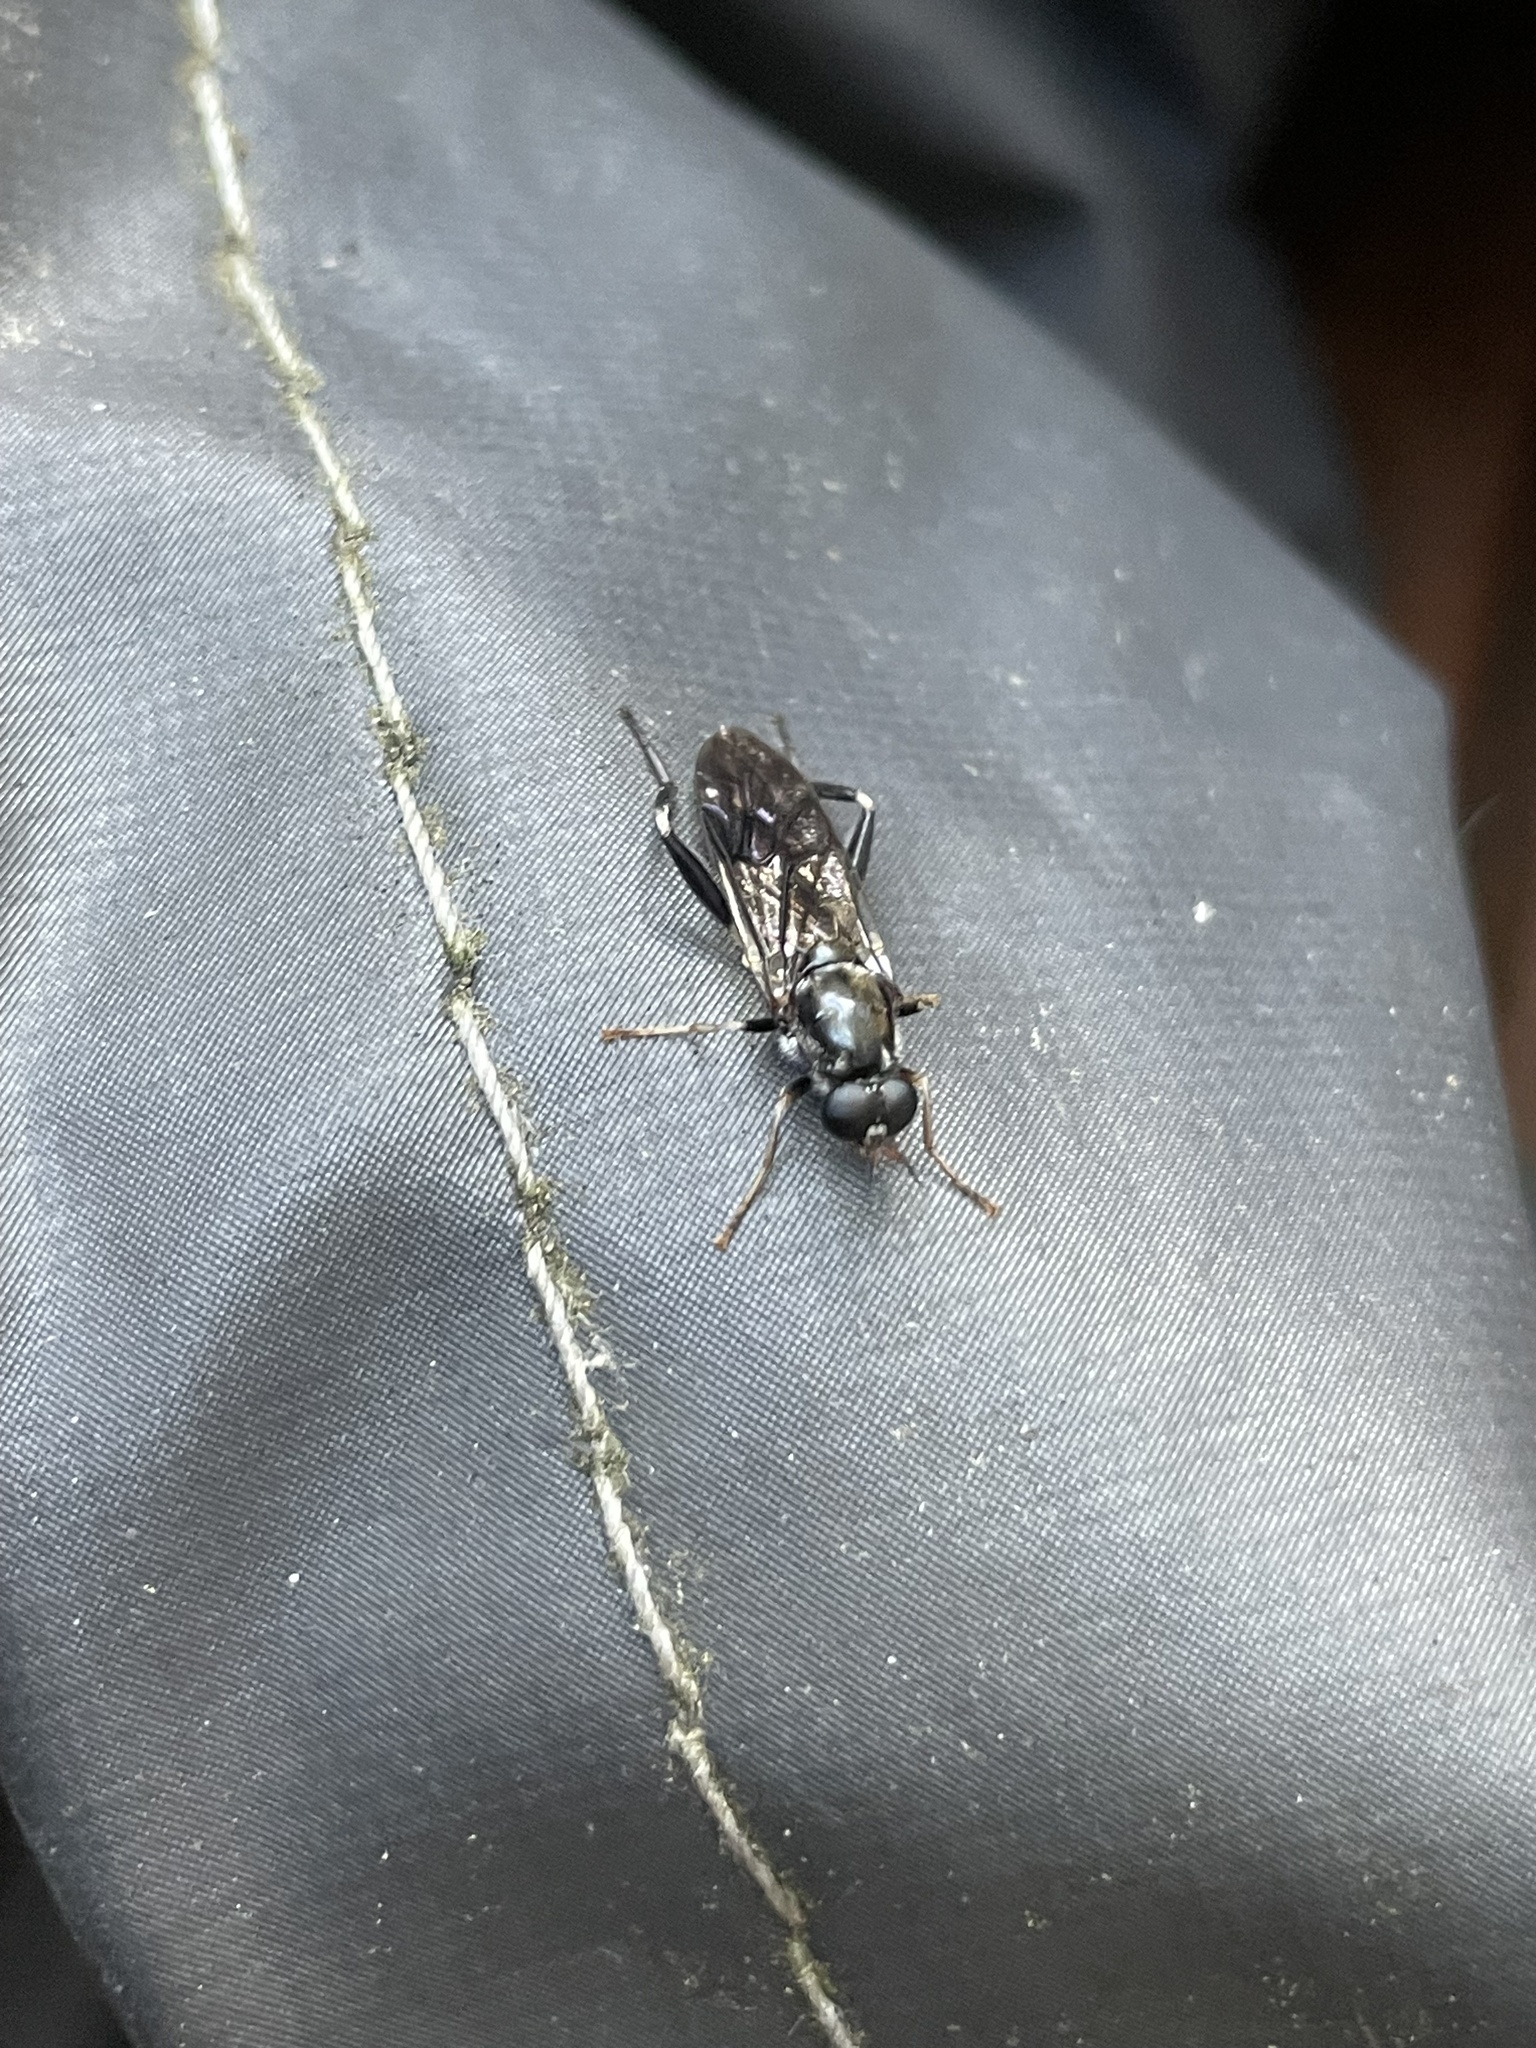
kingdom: Animalia
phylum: Arthropoda
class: Insecta
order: Diptera
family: Stratiomyidae
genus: Exaireta
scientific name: Exaireta spinigera
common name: Blue soldier fly
